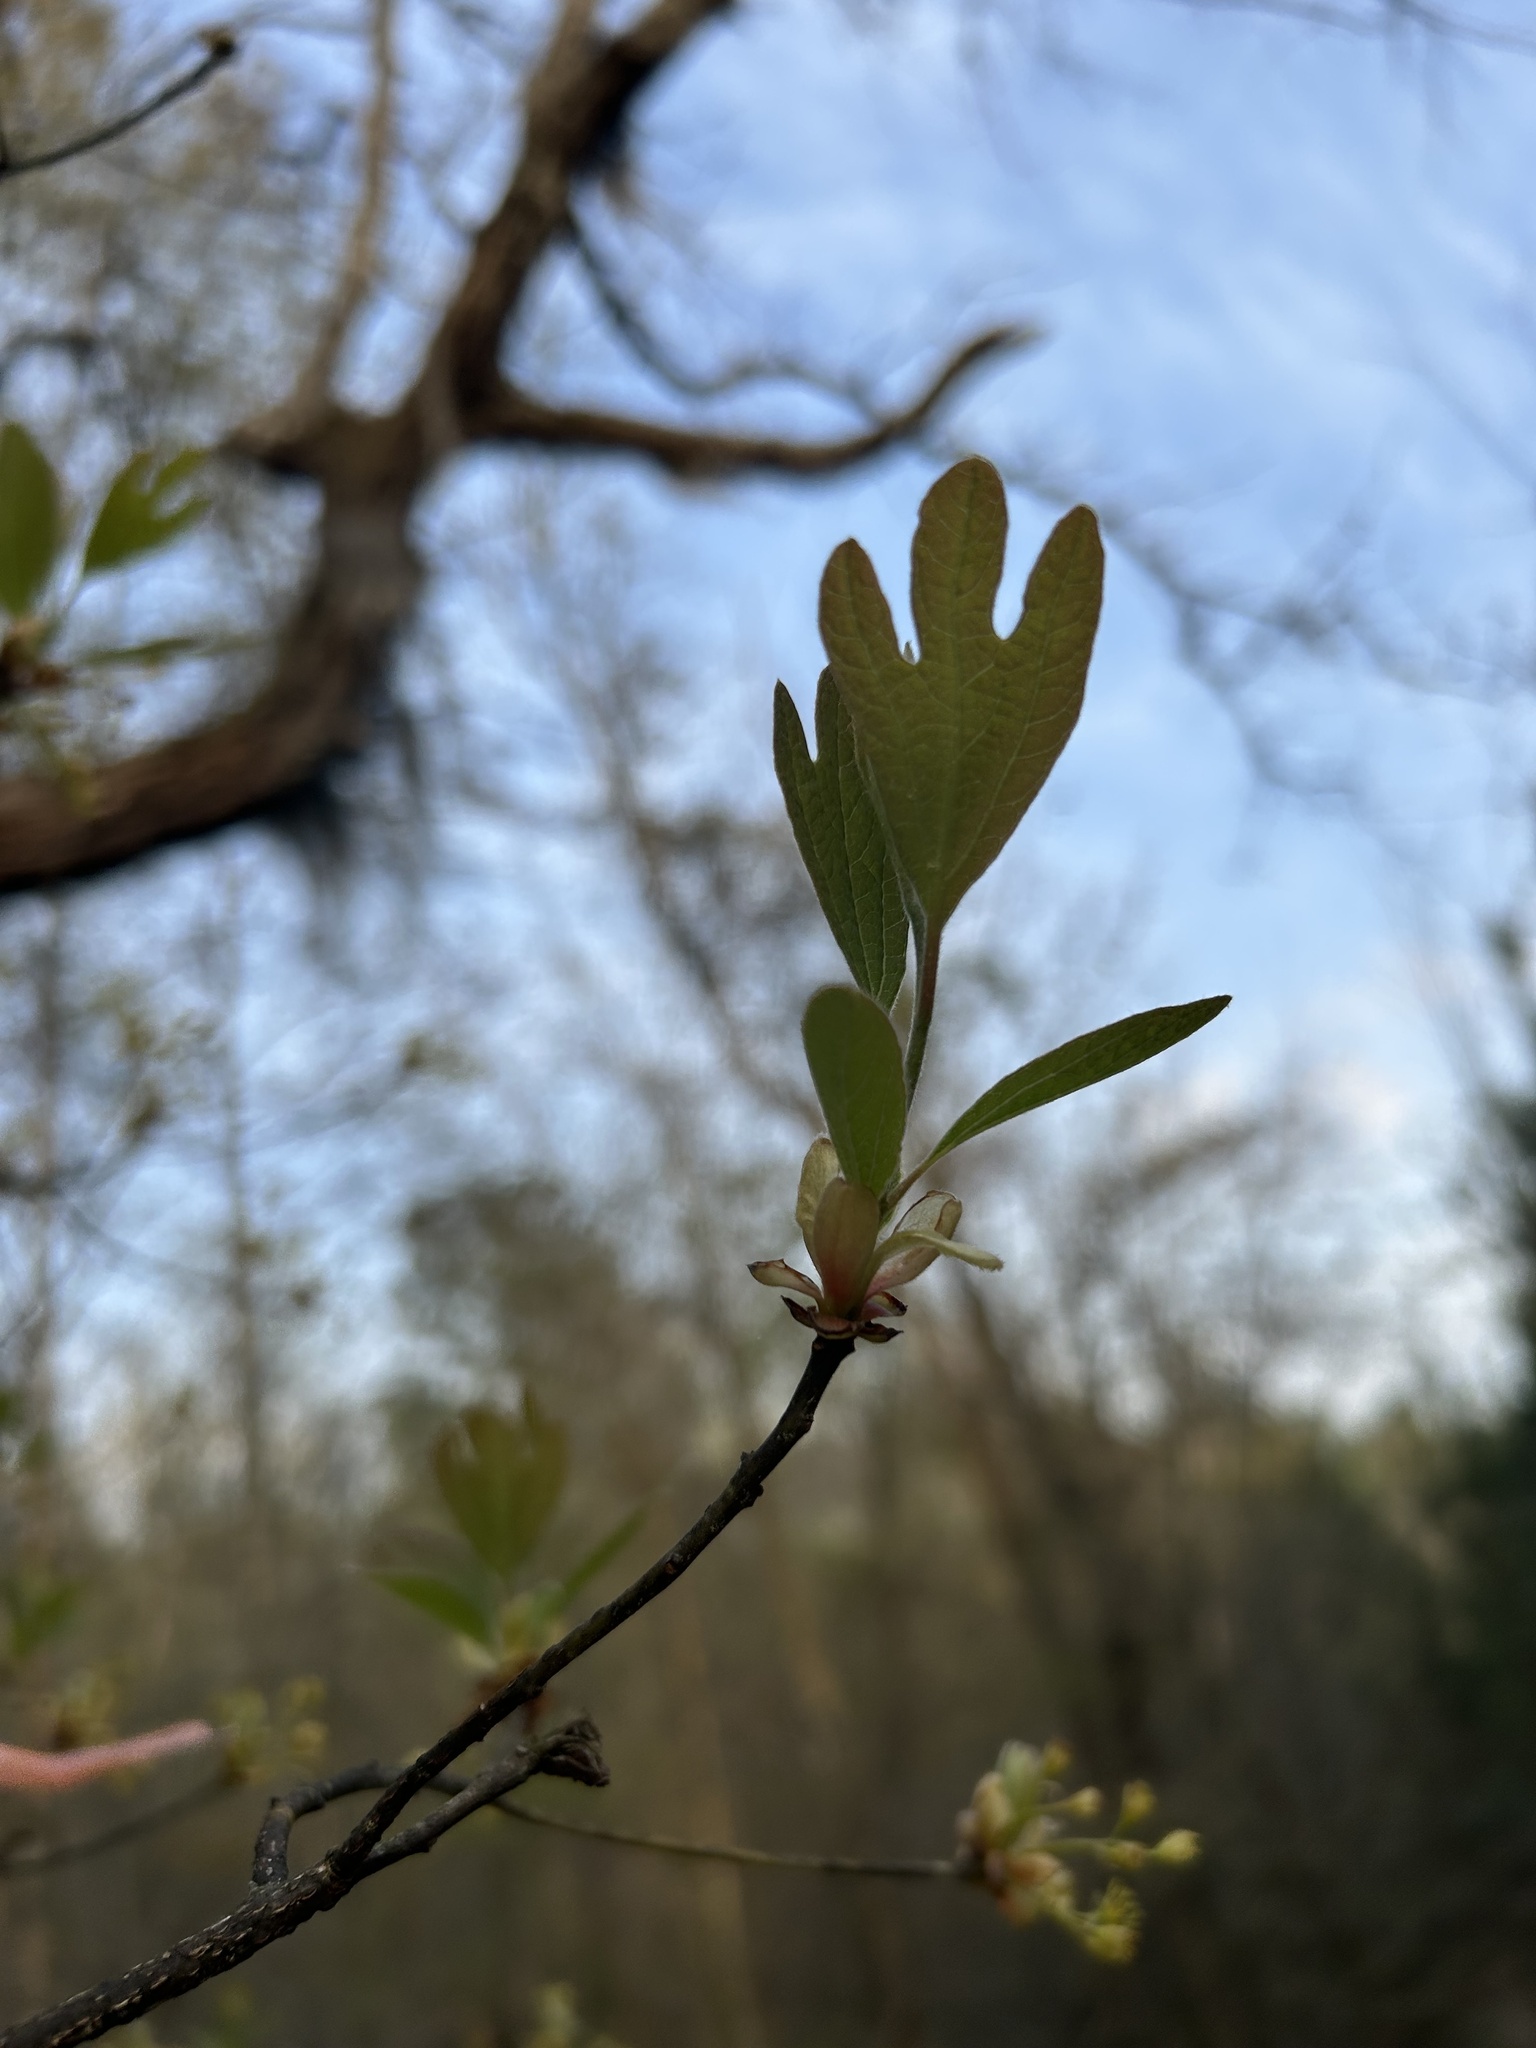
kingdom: Plantae
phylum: Tracheophyta
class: Magnoliopsida
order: Laurales
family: Lauraceae
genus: Sassafras
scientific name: Sassafras albidum
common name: Sassafras
